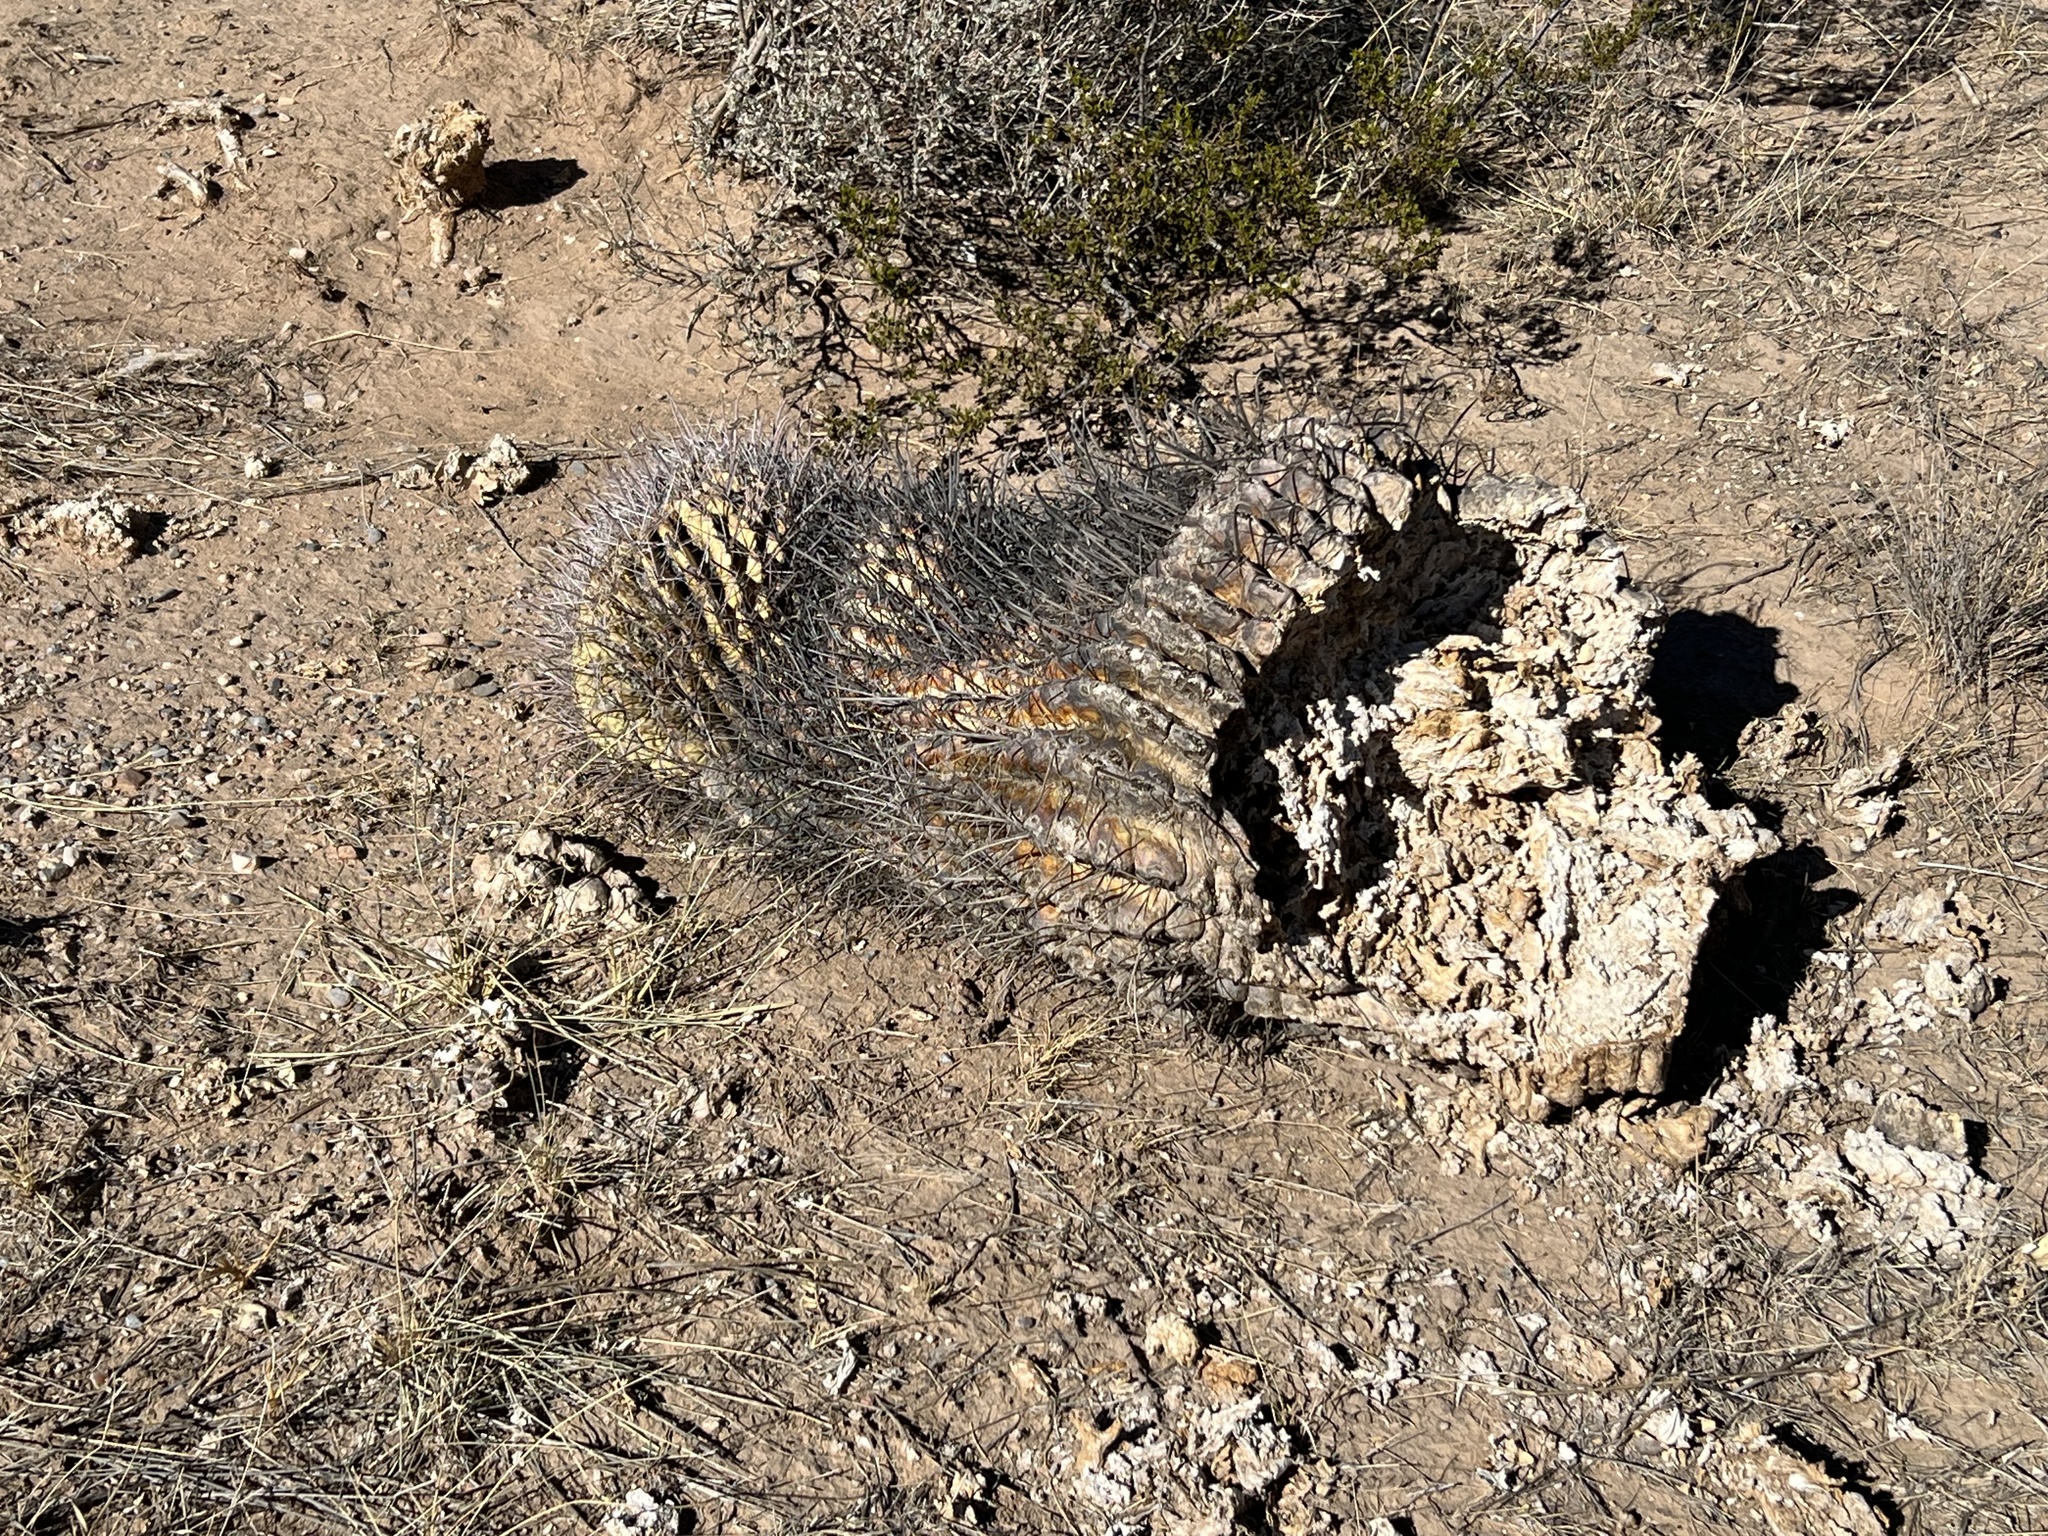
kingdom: Plantae
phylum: Tracheophyta
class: Magnoliopsida
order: Caryophyllales
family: Cactaceae
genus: Ferocactus
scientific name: Ferocactus wislizeni
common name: Candy barrel cactus
